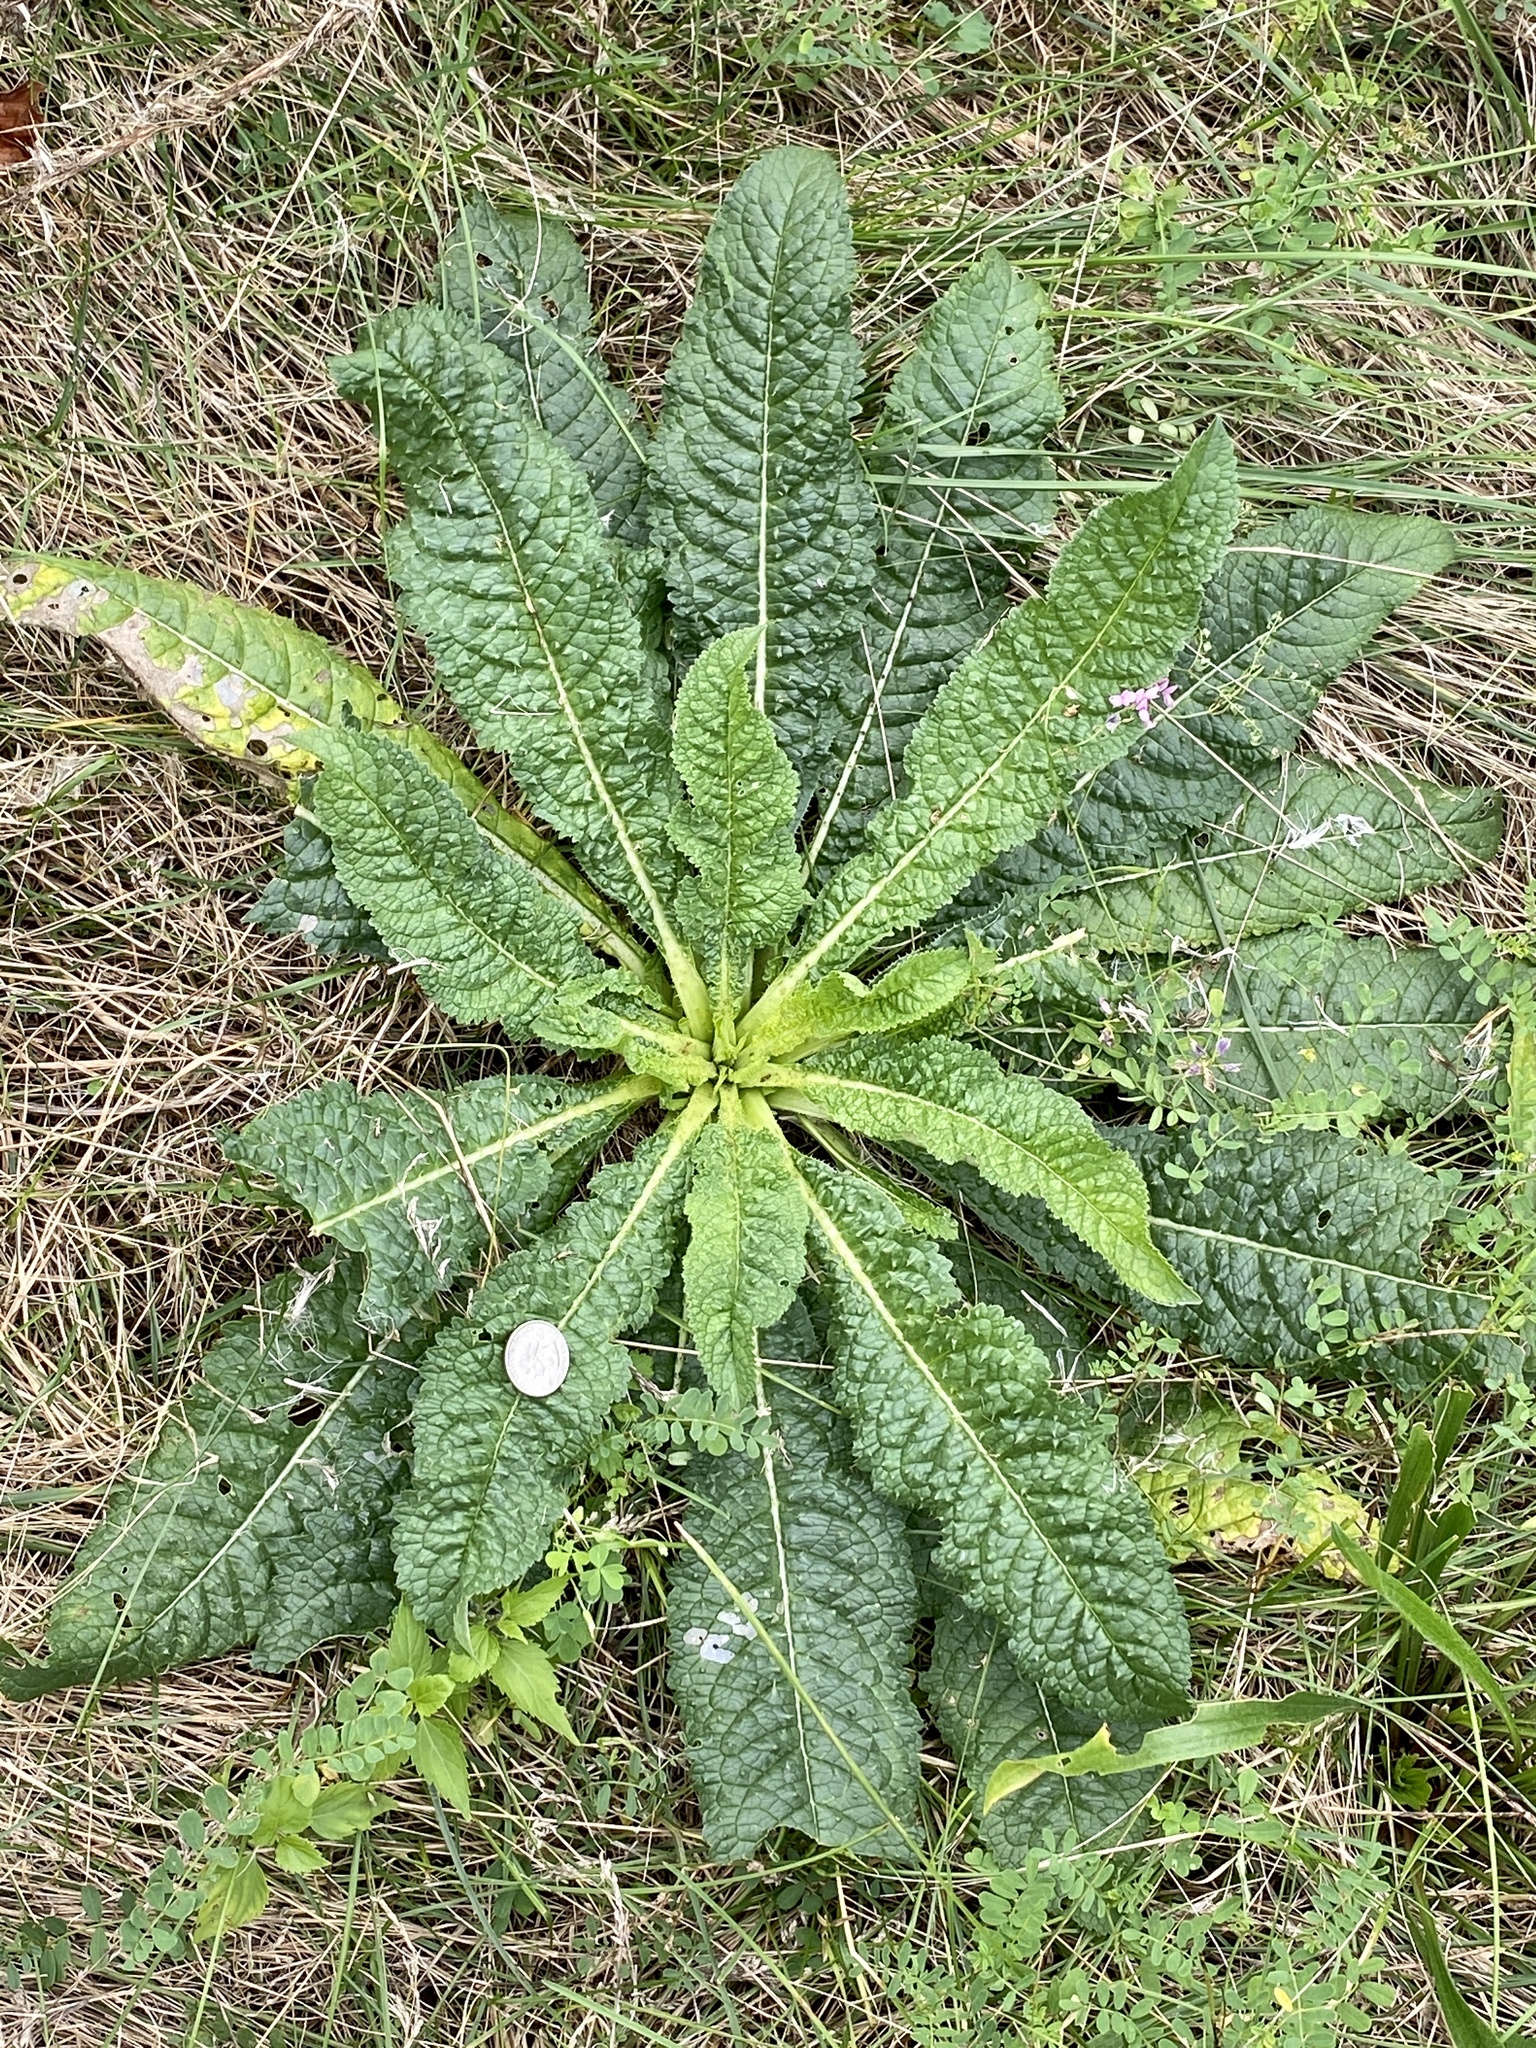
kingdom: Plantae
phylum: Tracheophyta
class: Magnoliopsida
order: Dipsacales
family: Caprifoliaceae
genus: Dipsacus
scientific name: Dipsacus fullonum
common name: Teasel
